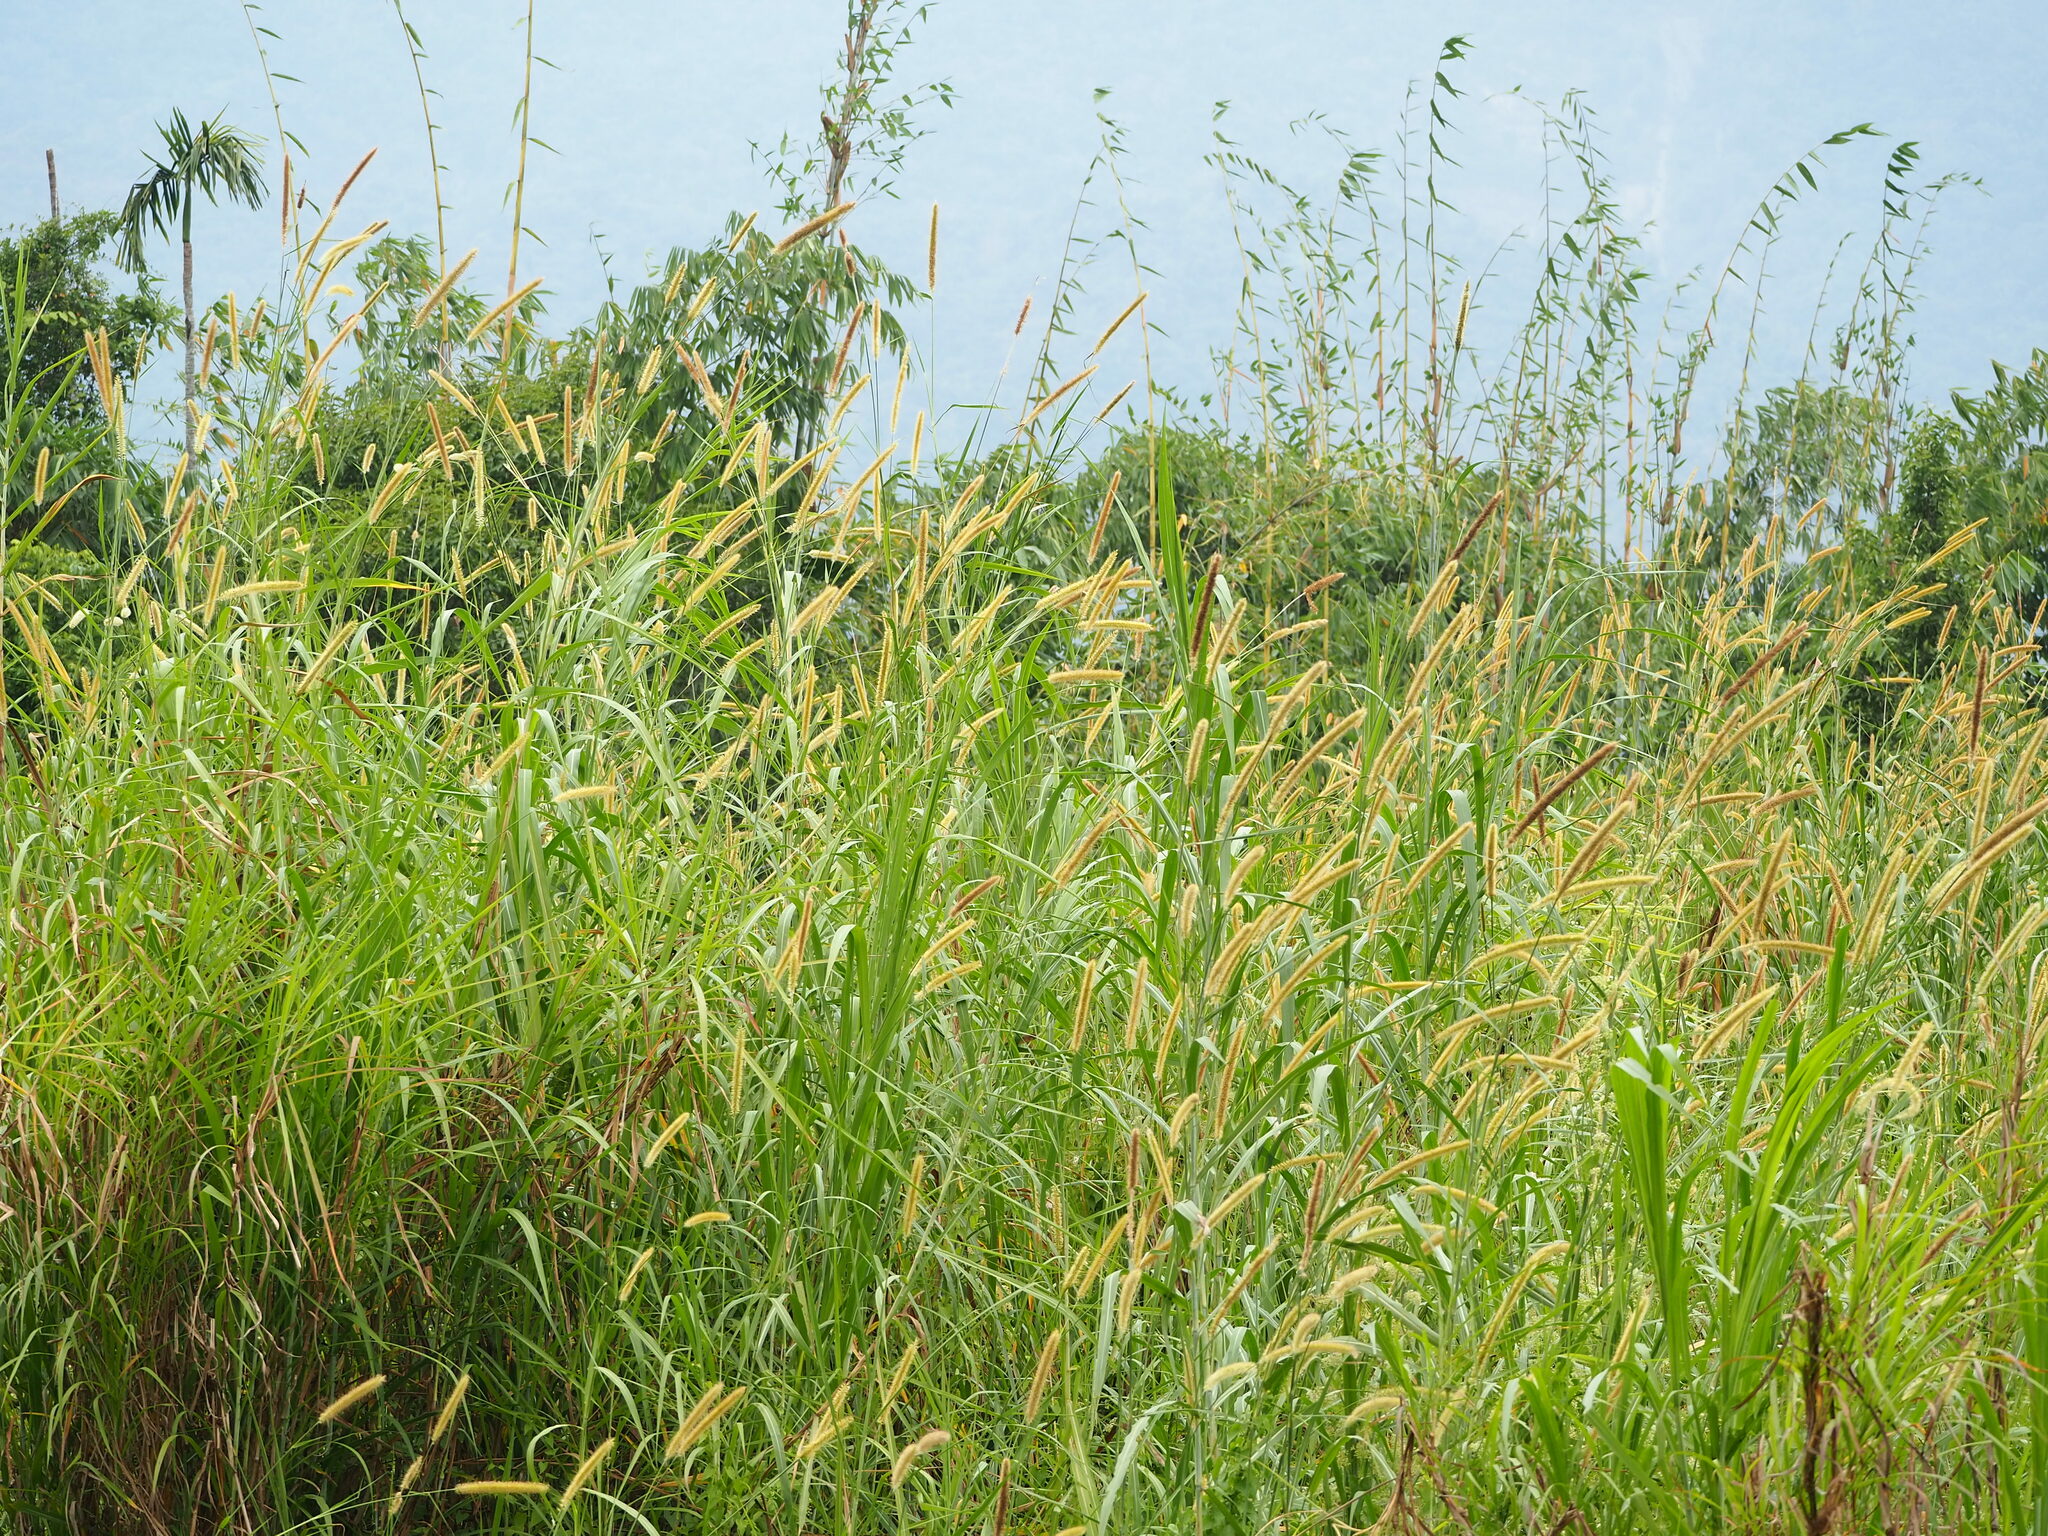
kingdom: Plantae
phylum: Tracheophyta
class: Liliopsida
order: Poales
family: Poaceae
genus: Cenchrus
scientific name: Cenchrus purpureus
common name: Elephant grass
